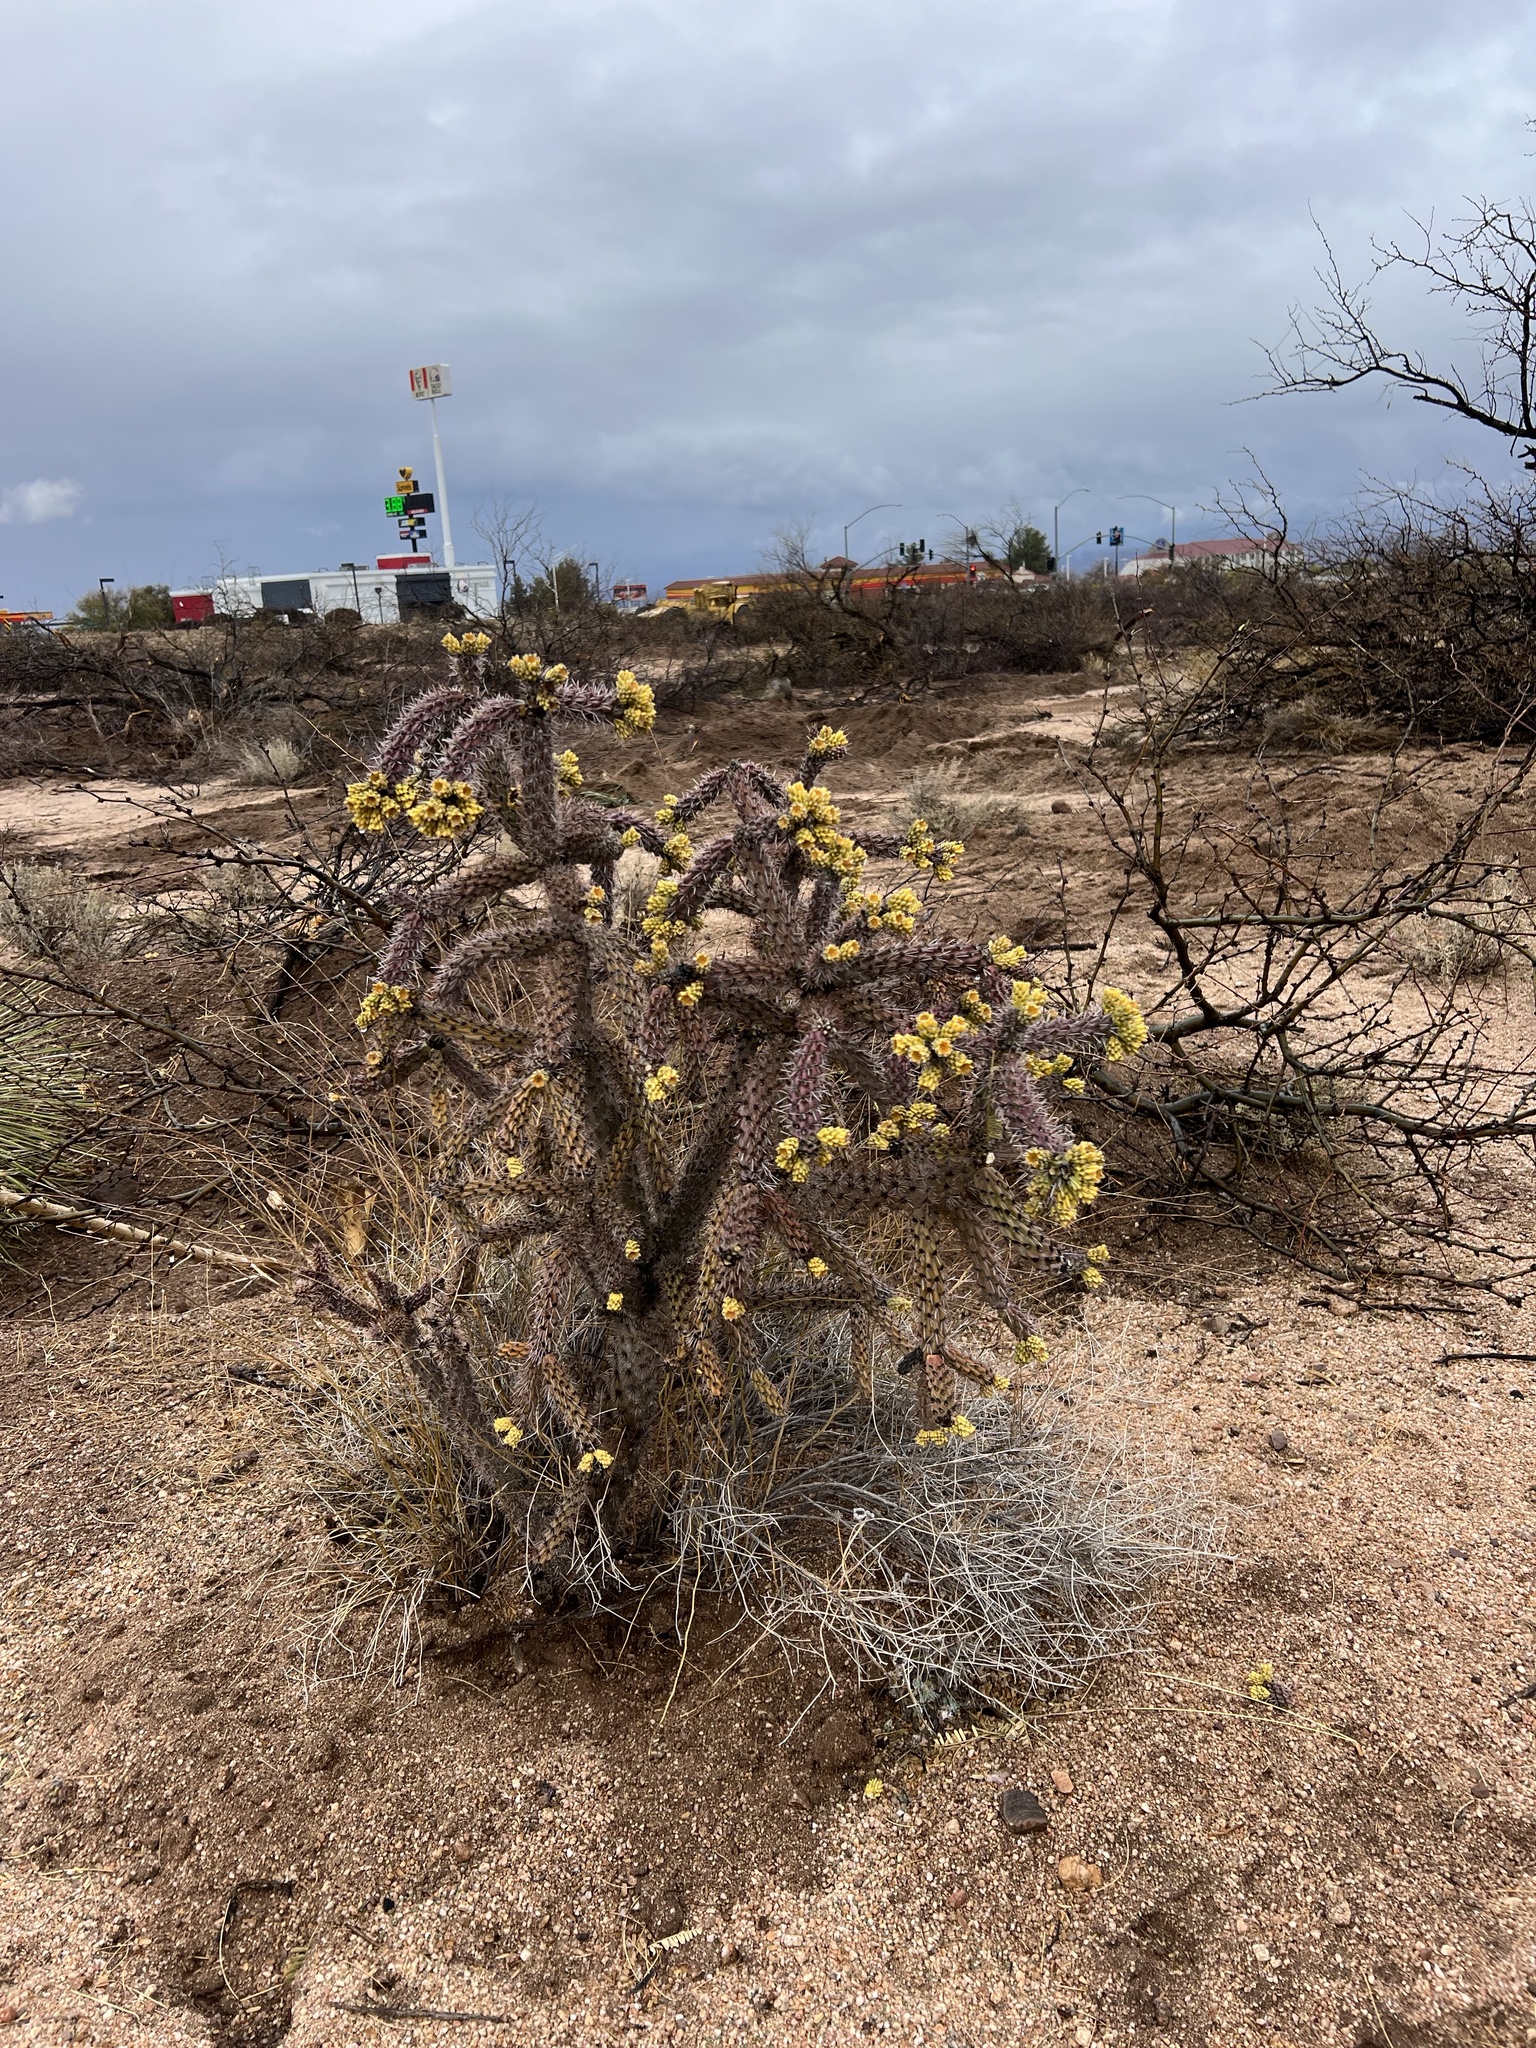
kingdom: Plantae
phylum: Tracheophyta
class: Magnoliopsida
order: Caryophyllales
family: Cactaceae
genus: Cylindropuntia
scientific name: Cylindropuntia imbricata
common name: Candelabrum cactus
